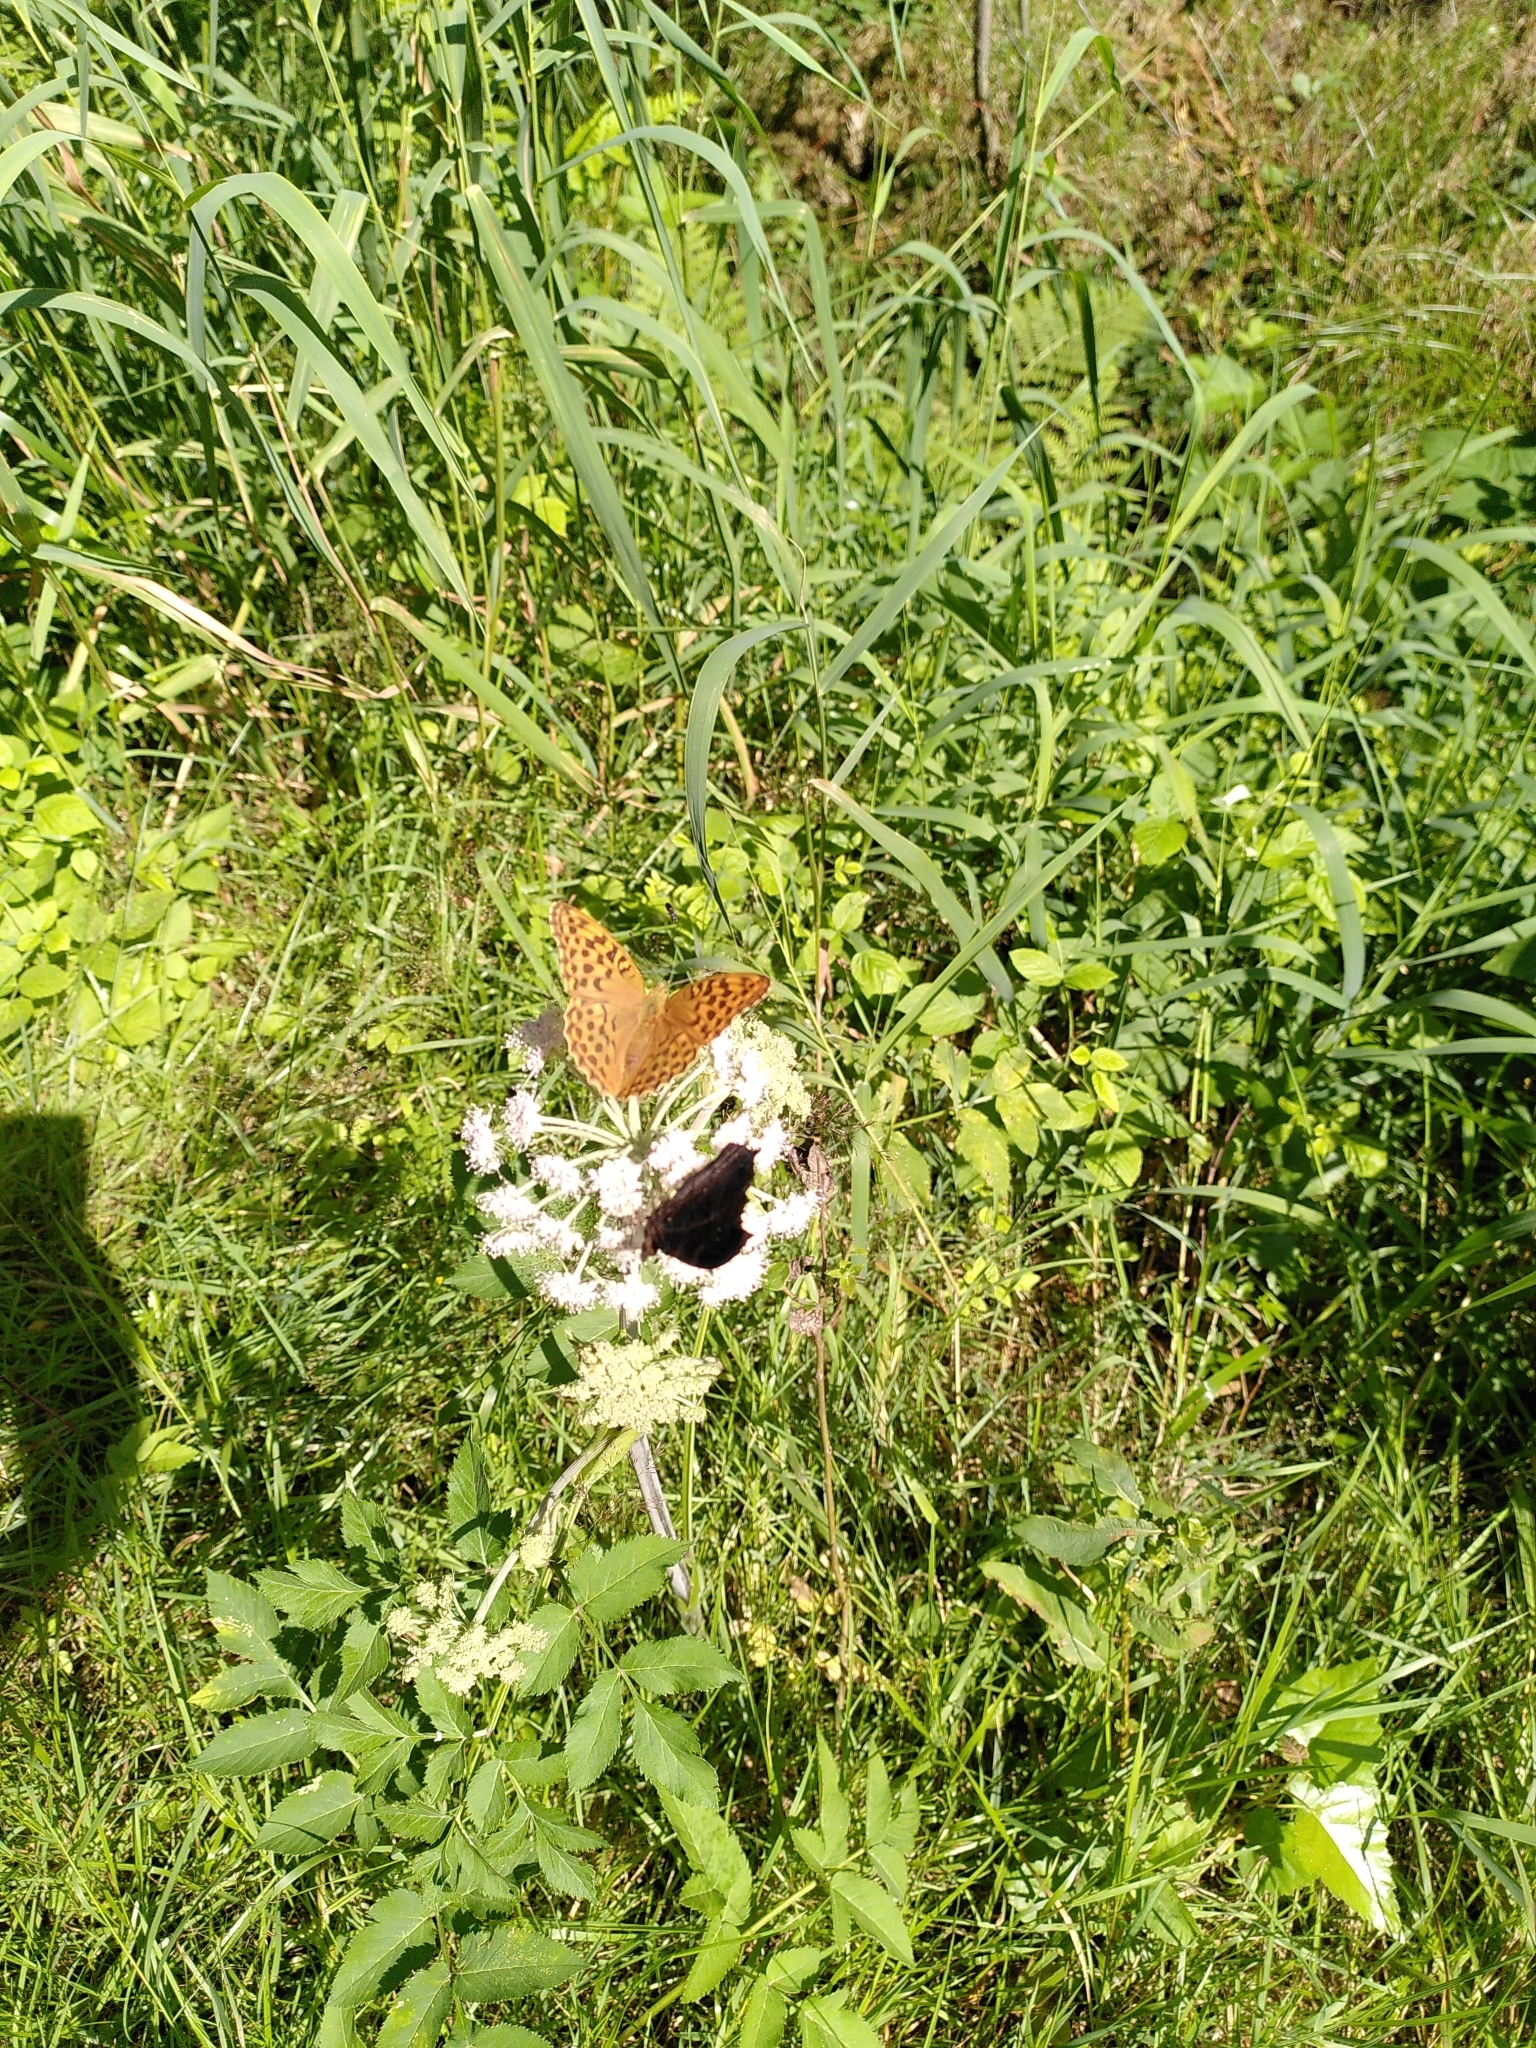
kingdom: Animalia
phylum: Arthropoda
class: Insecta
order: Lepidoptera
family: Nymphalidae
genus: Argynnis
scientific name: Argynnis paphia
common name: Silver-washed fritillary
